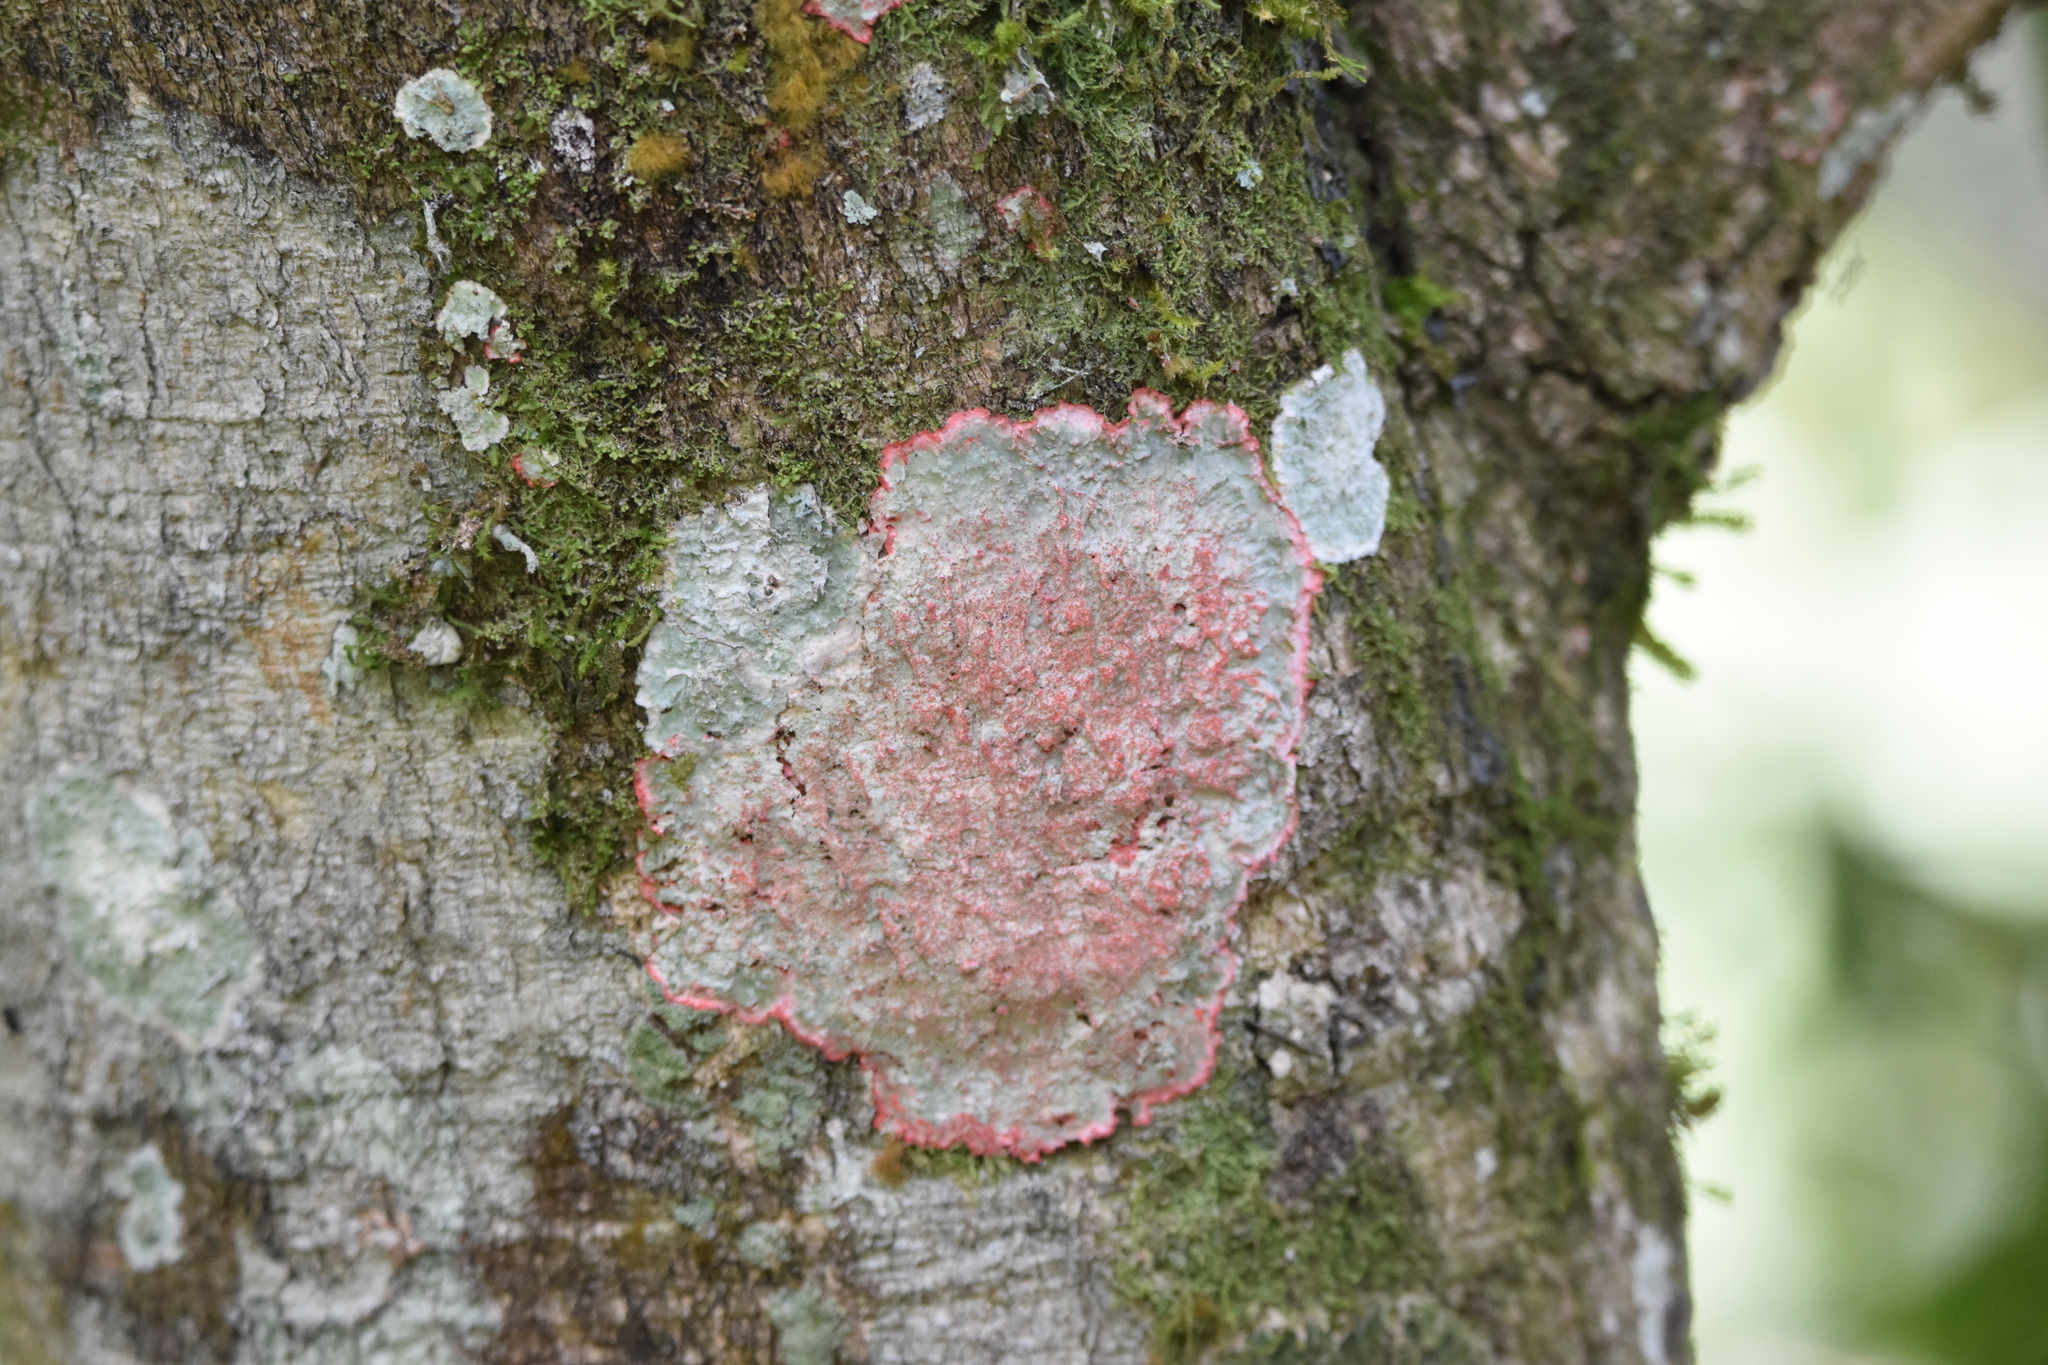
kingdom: Fungi
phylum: Ascomycota
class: Arthoniomycetes
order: Arthoniales
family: Arthoniaceae
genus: Herpothallon
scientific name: Herpothallon rubrocinctum
